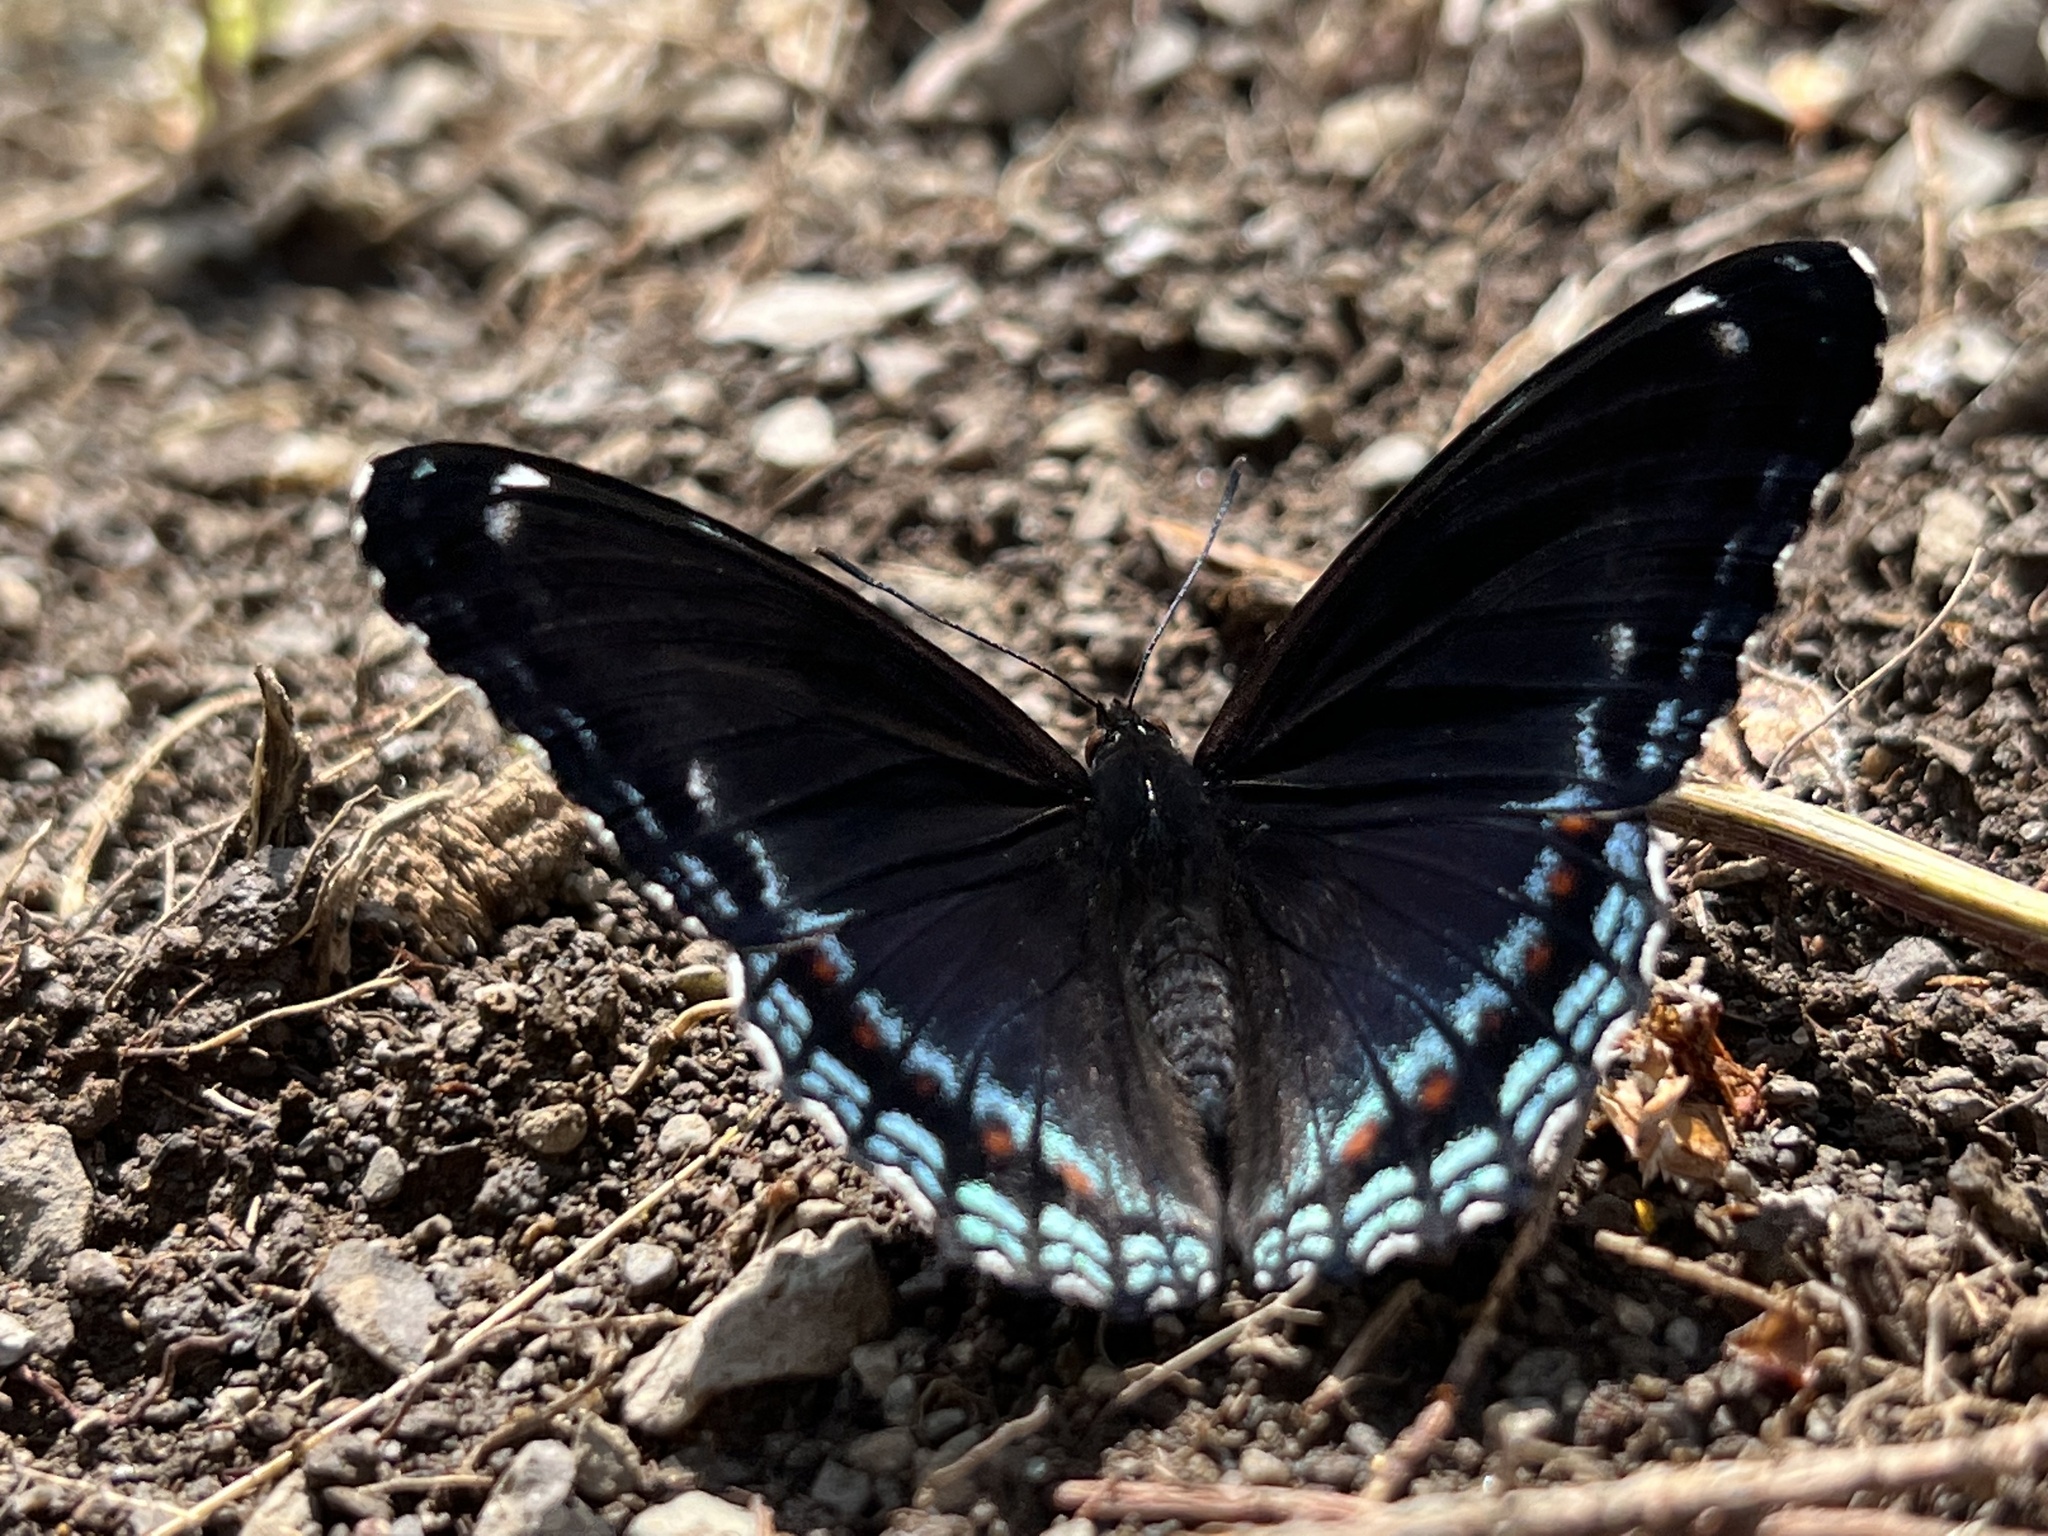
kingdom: Animalia
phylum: Arthropoda
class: Insecta
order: Lepidoptera
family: Nymphalidae
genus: Limenitis
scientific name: Limenitis arthemis
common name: Red-spotted admiral
